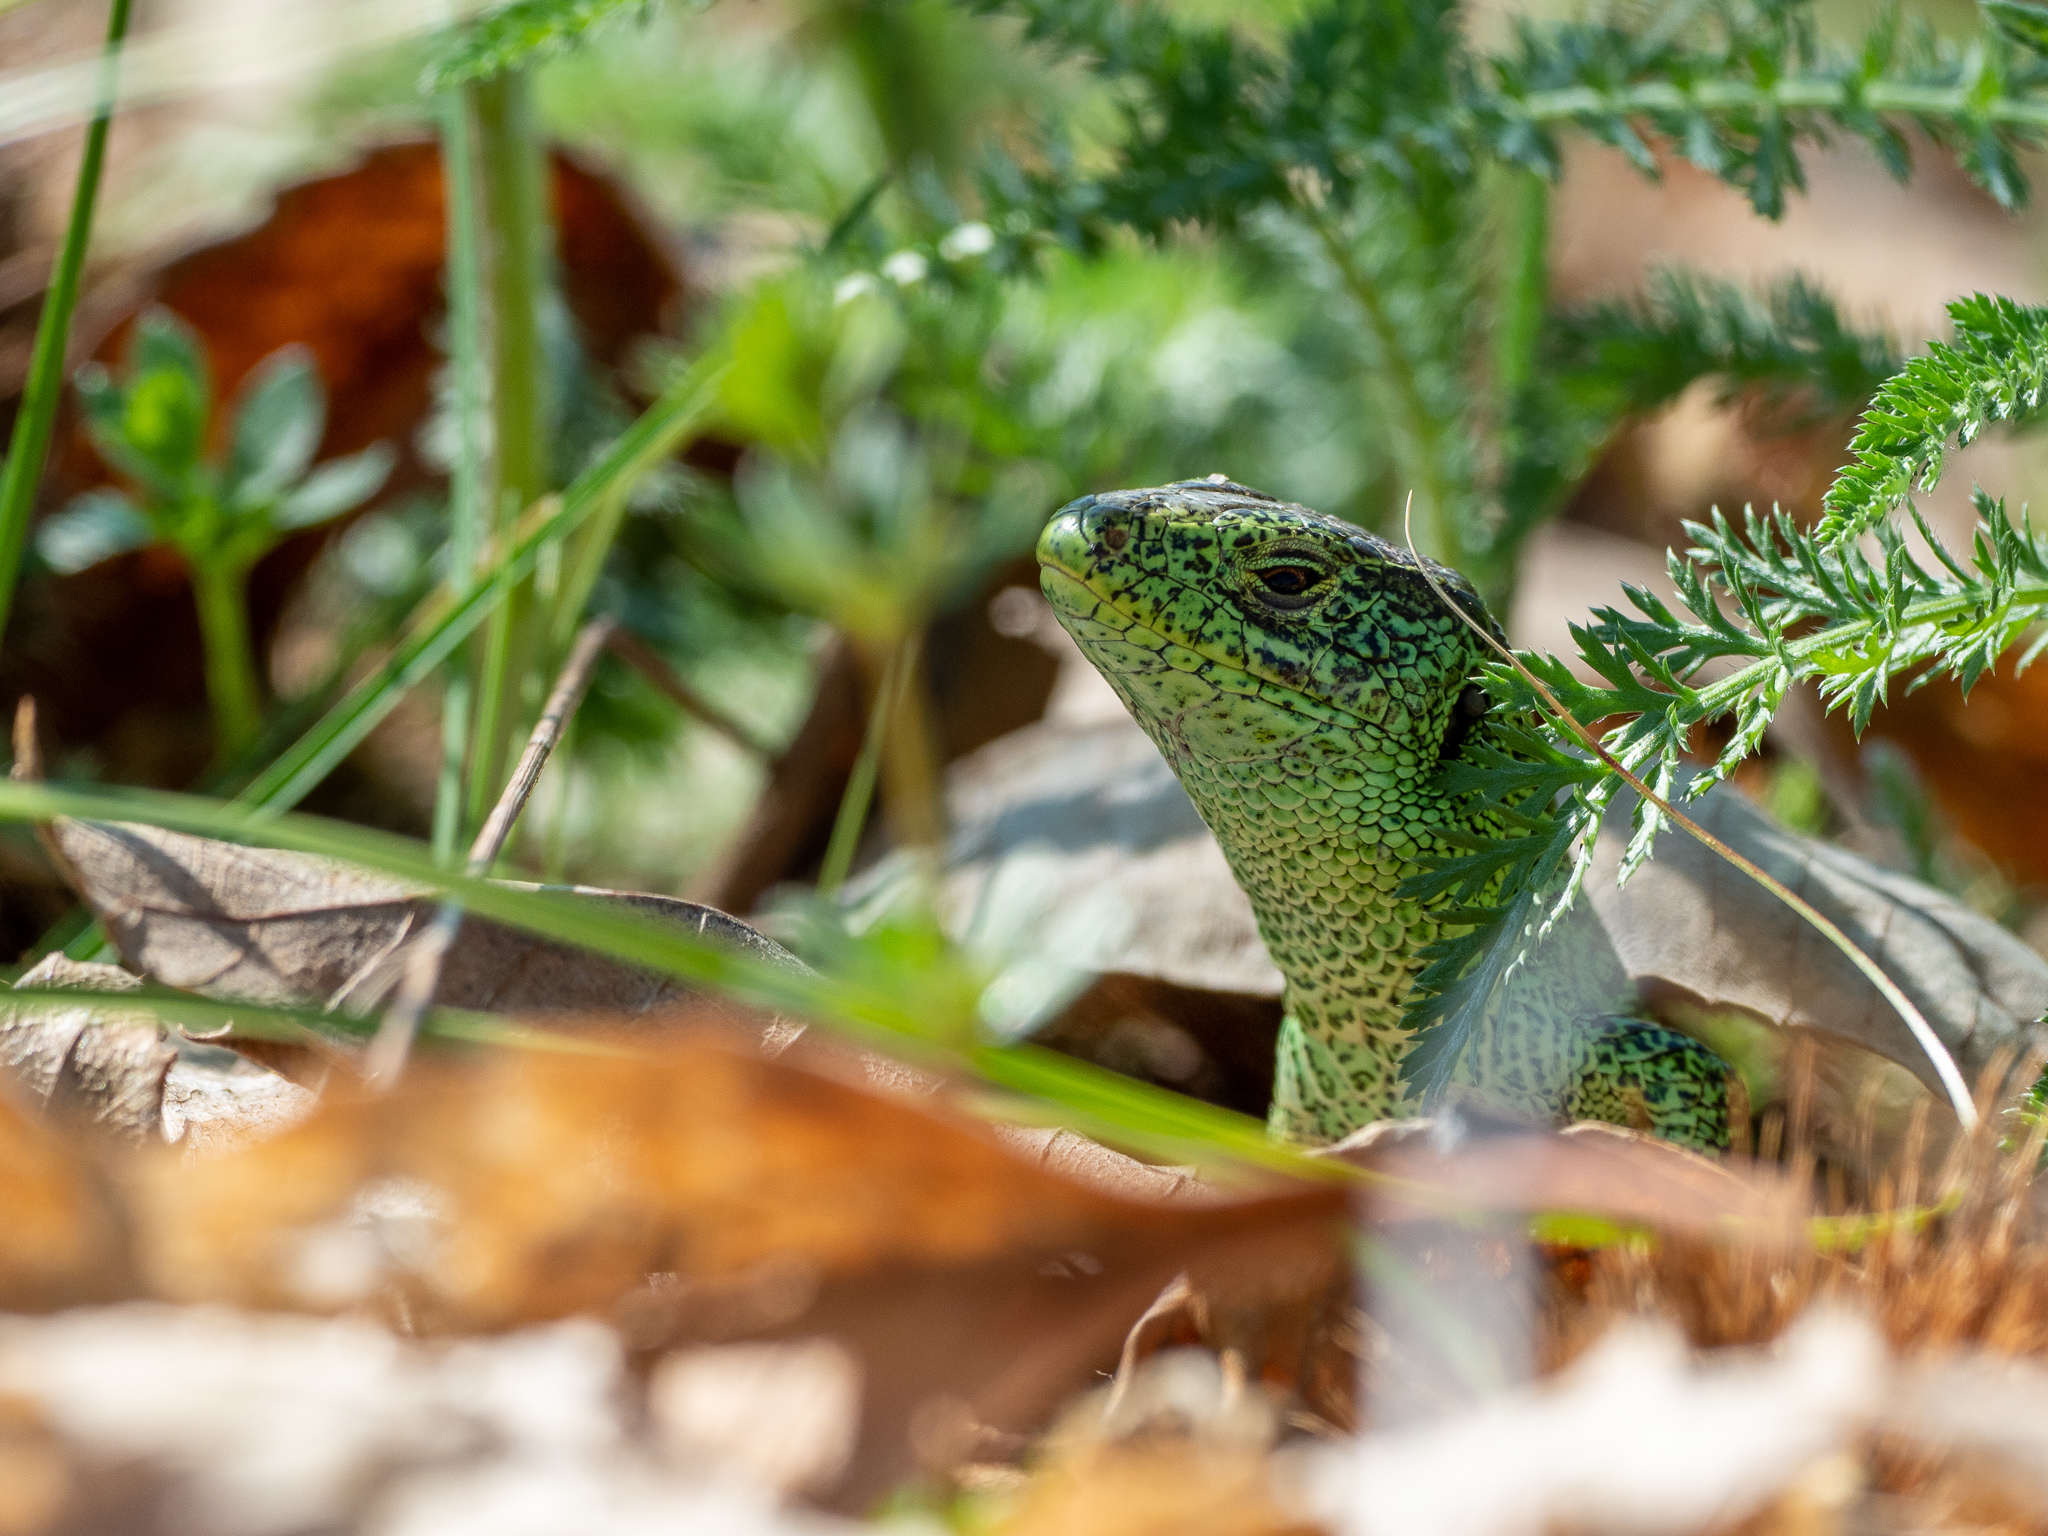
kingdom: Animalia
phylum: Chordata
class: Squamata
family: Lacertidae
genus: Lacerta
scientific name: Lacerta agilis
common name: Sand lizard
